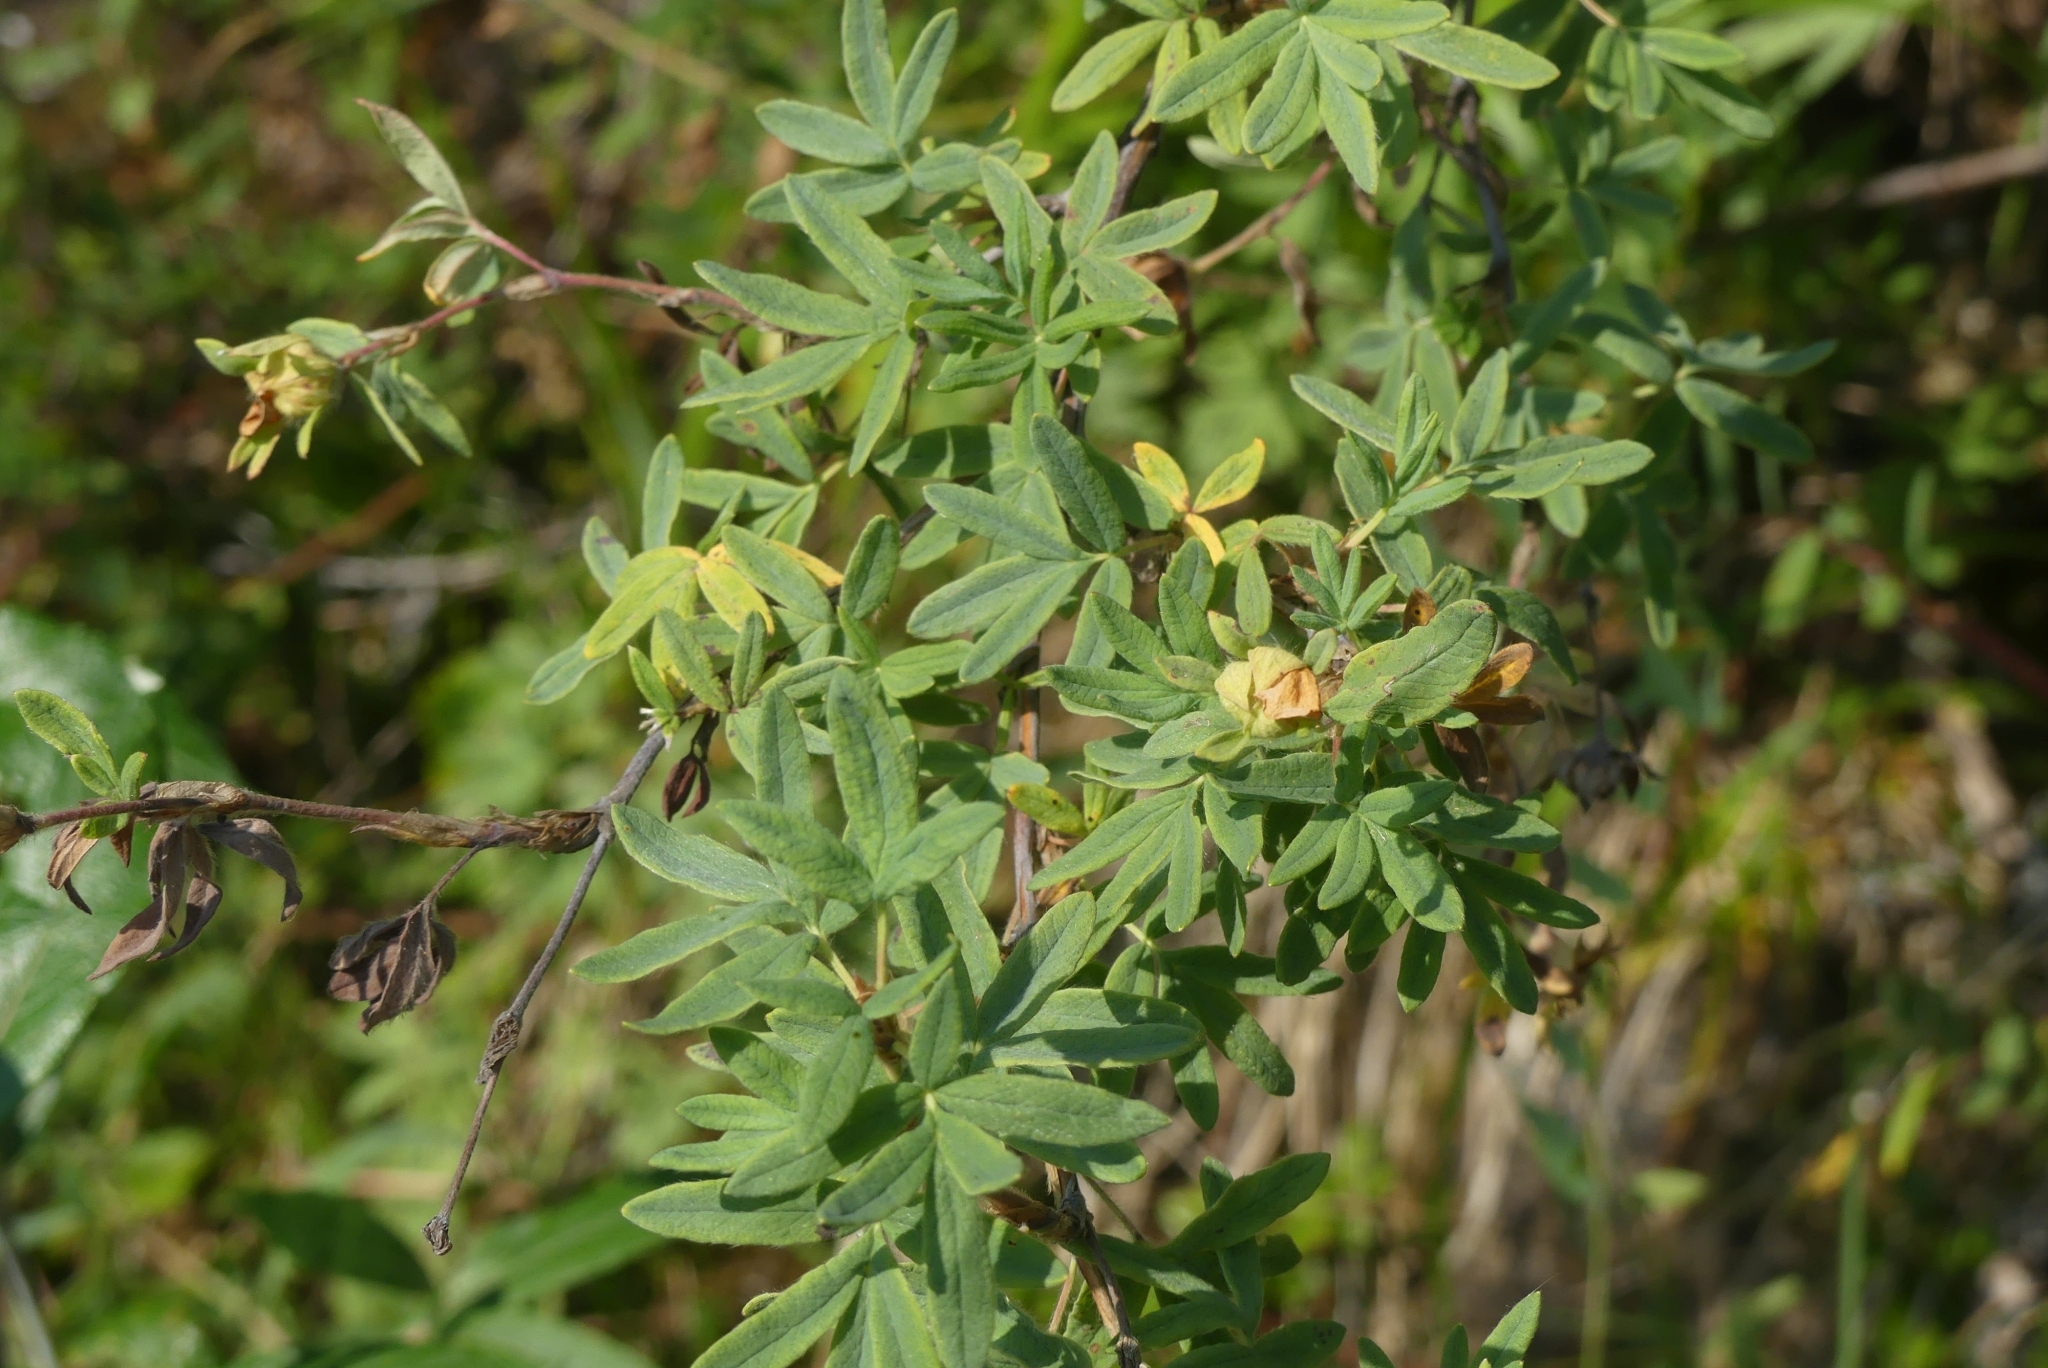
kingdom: Plantae
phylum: Tracheophyta
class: Magnoliopsida
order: Rosales
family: Rosaceae
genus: Dasiphora
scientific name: Dasiphora fruticosa
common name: Shrubby cinquefoil
